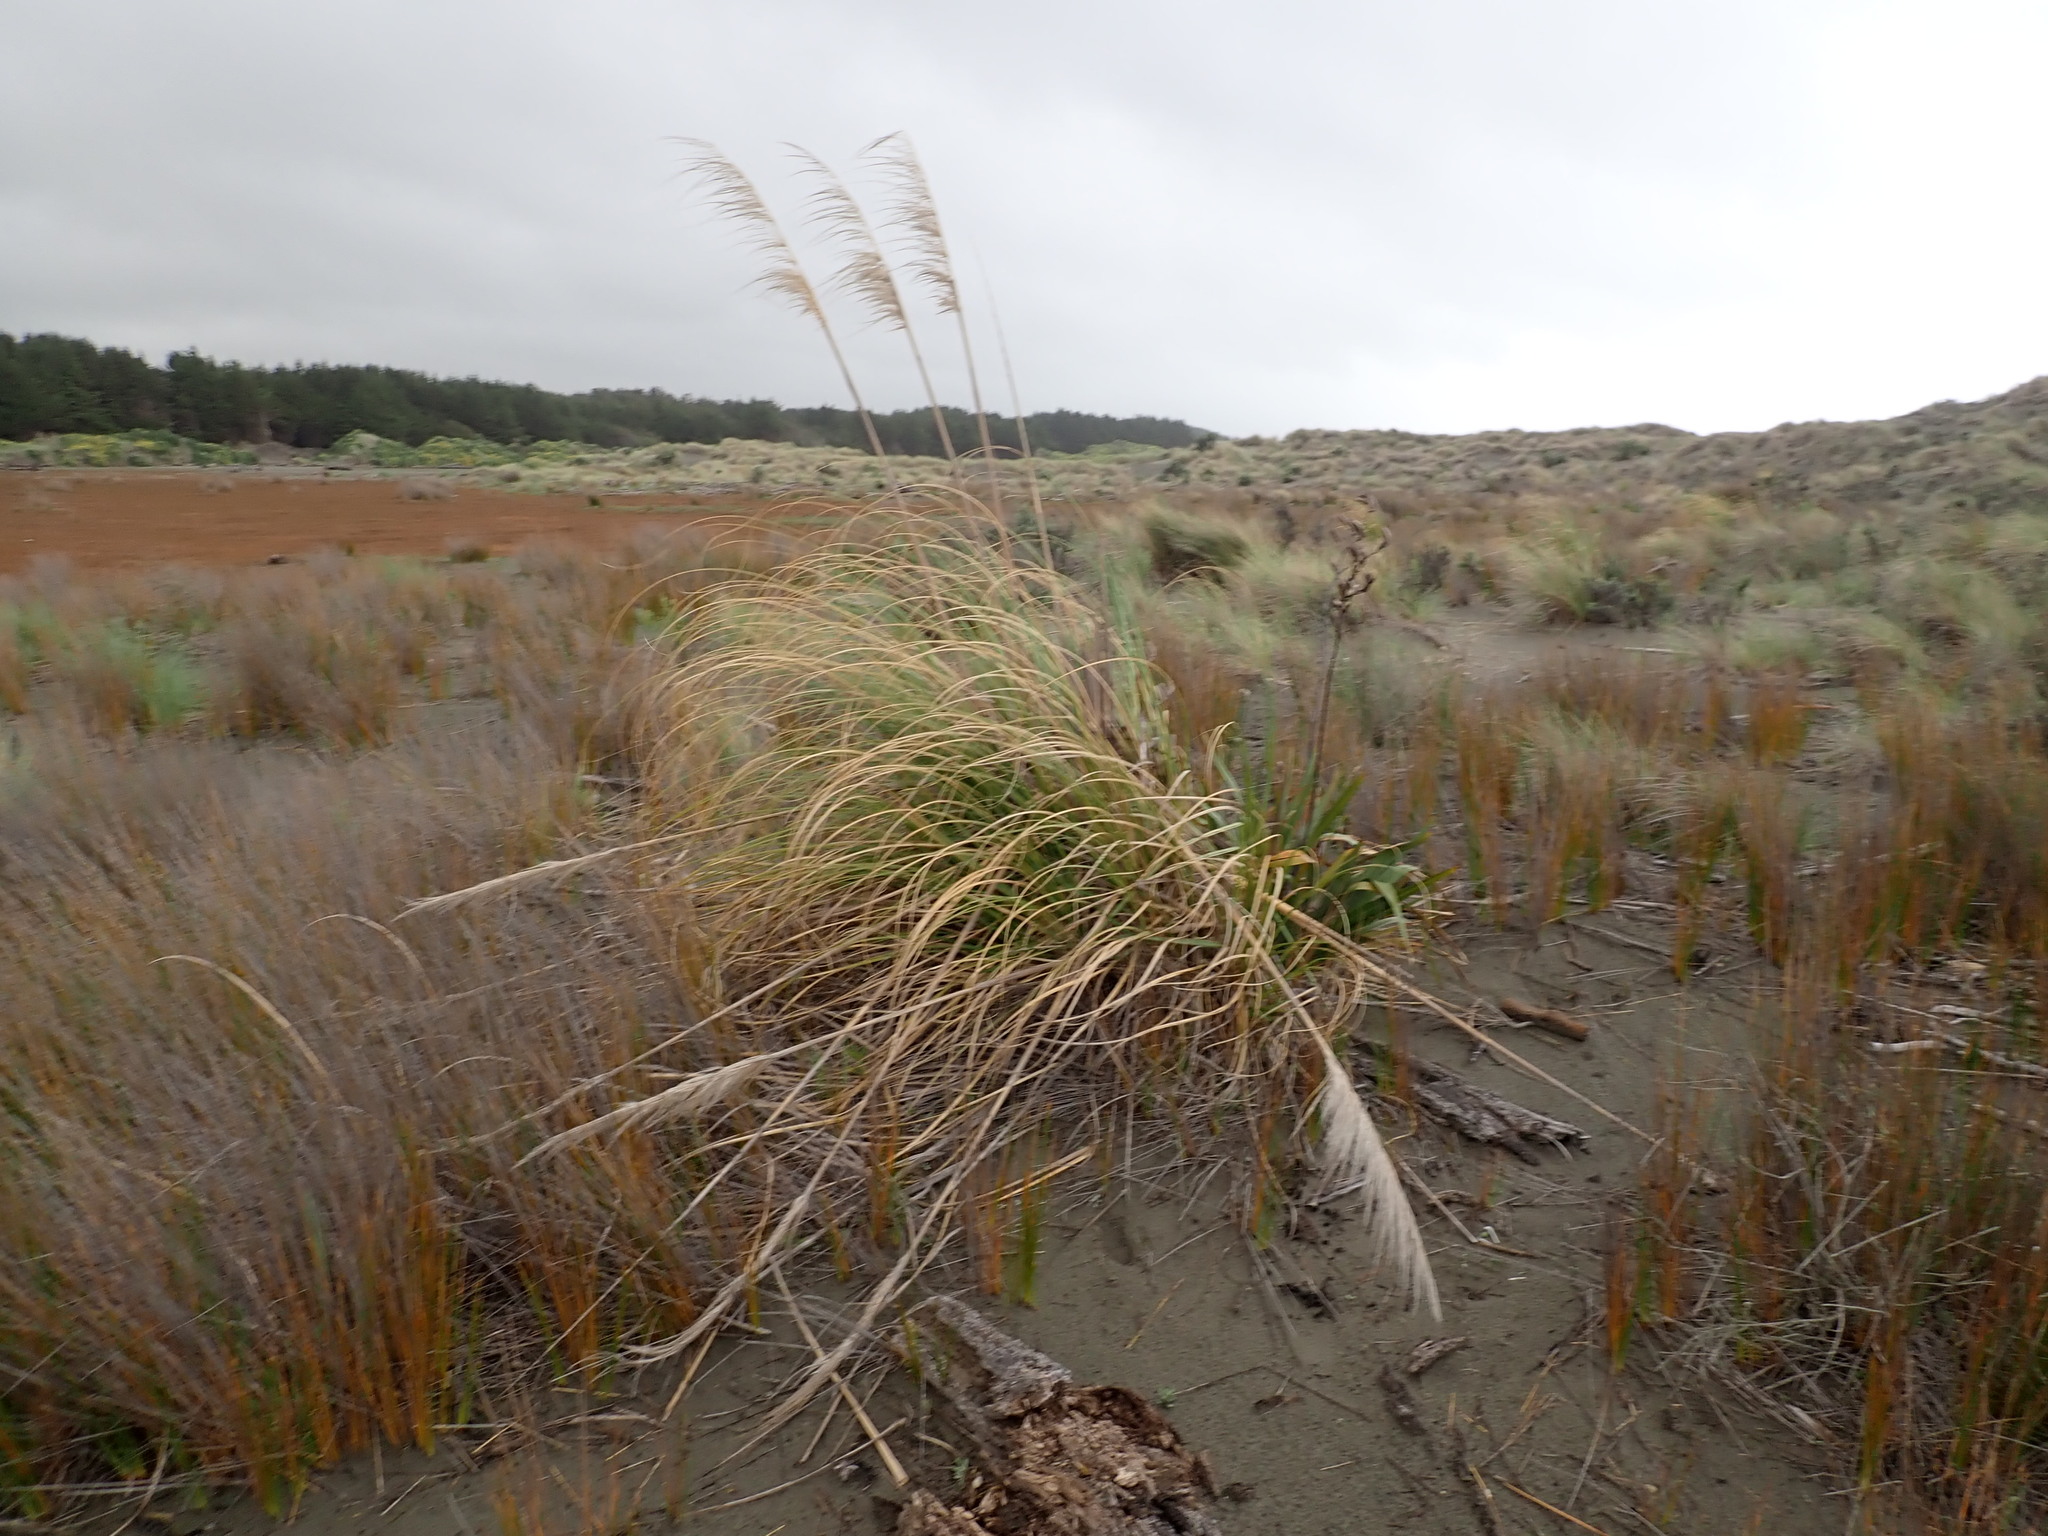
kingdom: Plantae
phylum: Tracheophyta
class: Liliopsida
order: Asparagales
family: Asphodelaceae
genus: Phormium
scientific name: Phormium tenax
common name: New zealand flax
